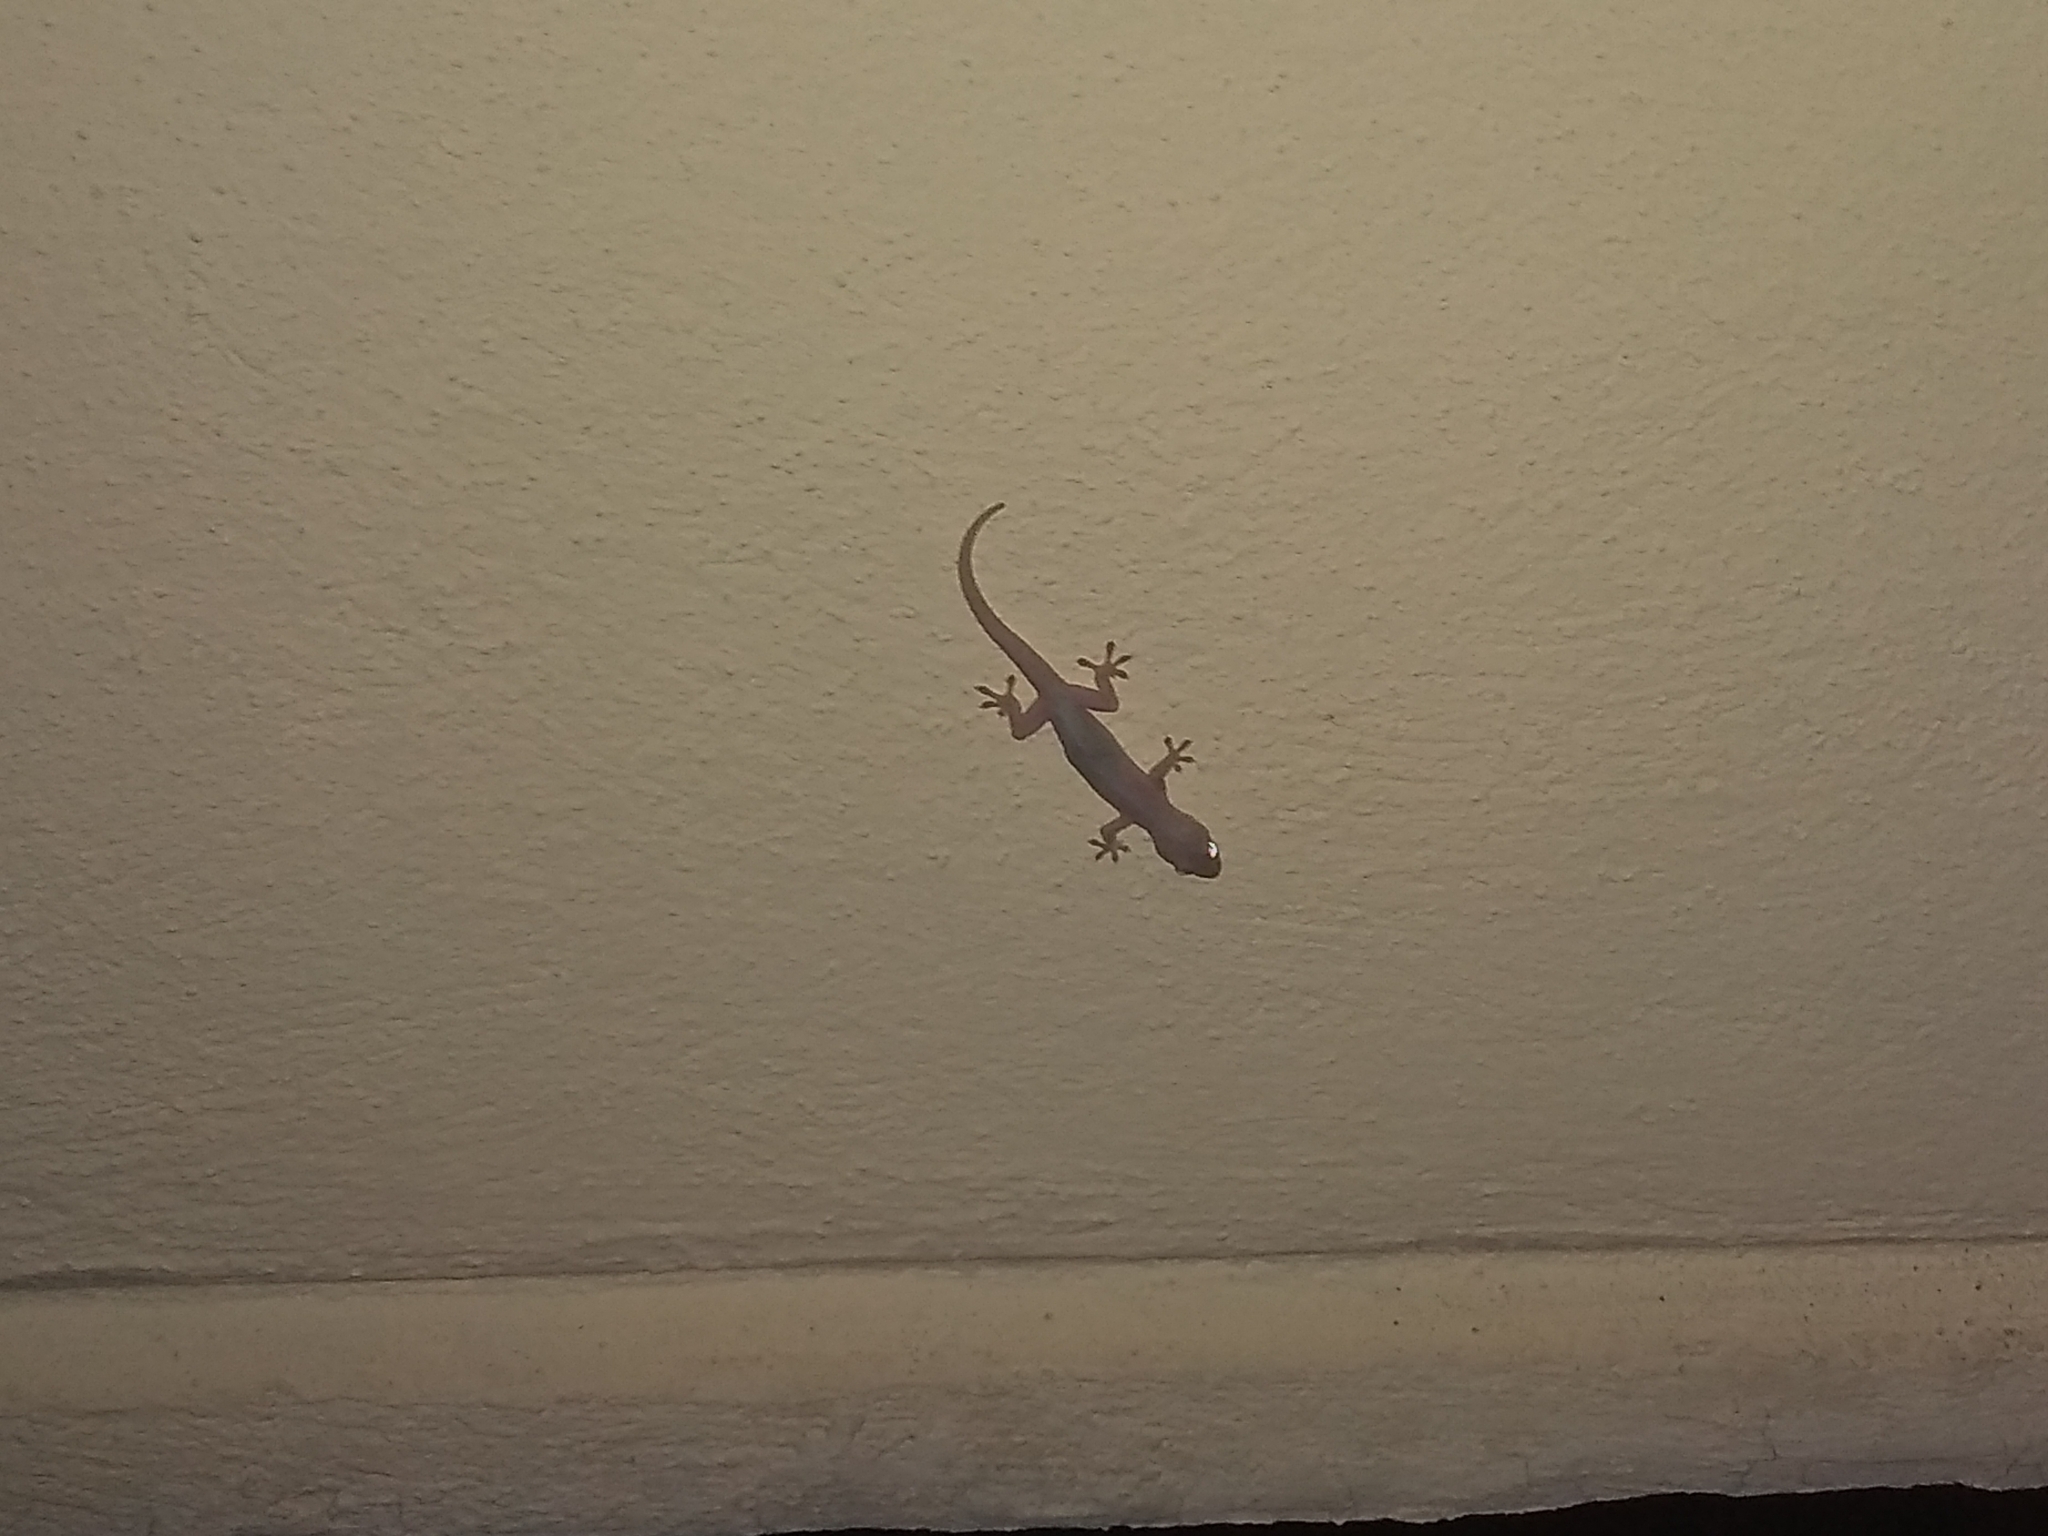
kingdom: Animalia
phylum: Chordata
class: Squamata
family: Gekkonidae
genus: Hemidactylus
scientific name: Hemidactylus frenatus
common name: Common house gecko
